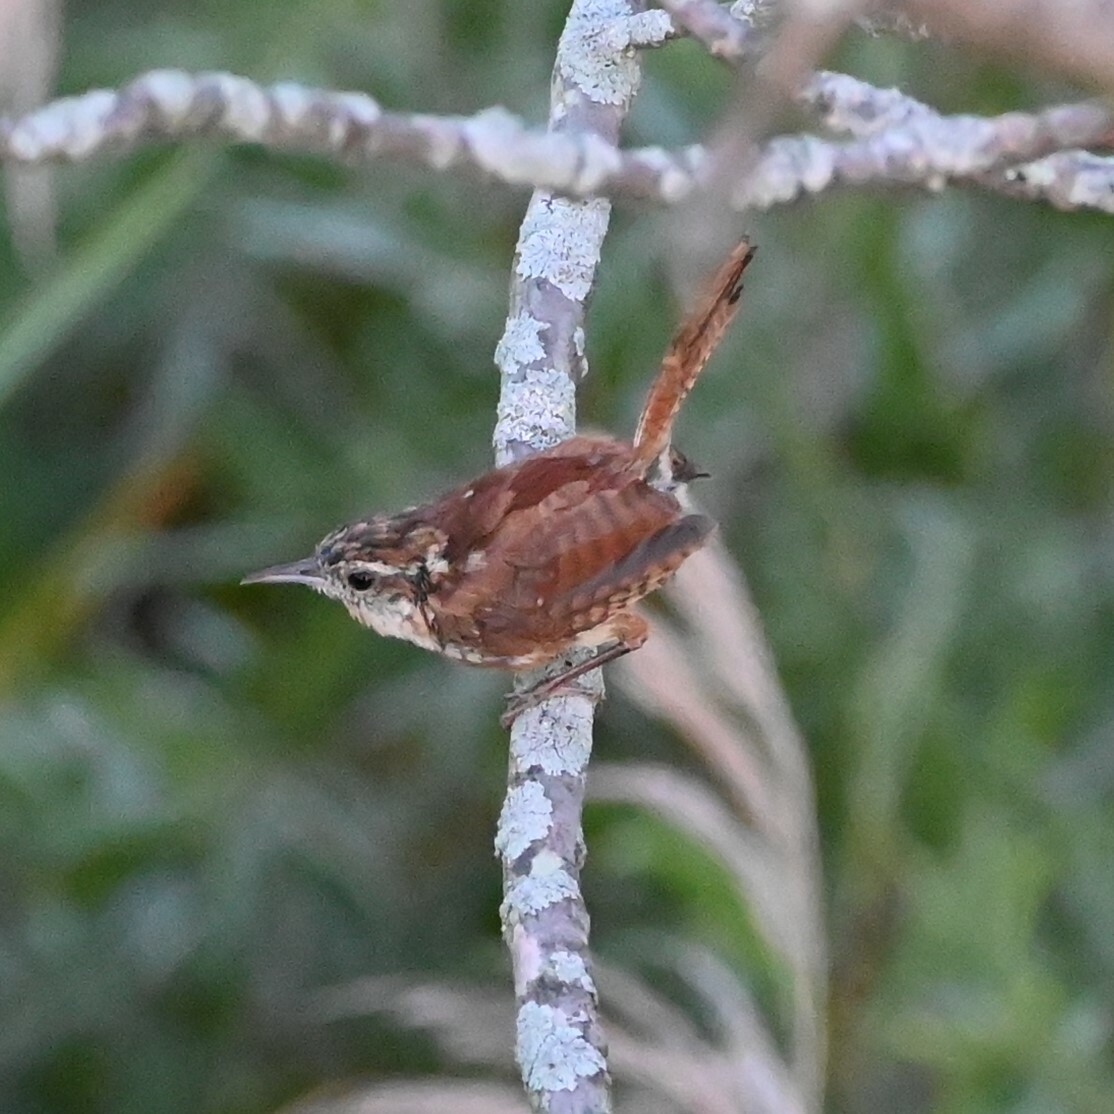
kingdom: Animalia
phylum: Chordata
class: Aves
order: Passeriformes
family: Troglodytidae
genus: Thryothorus
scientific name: Thryothorus ludovicianus
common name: Carolina wren
